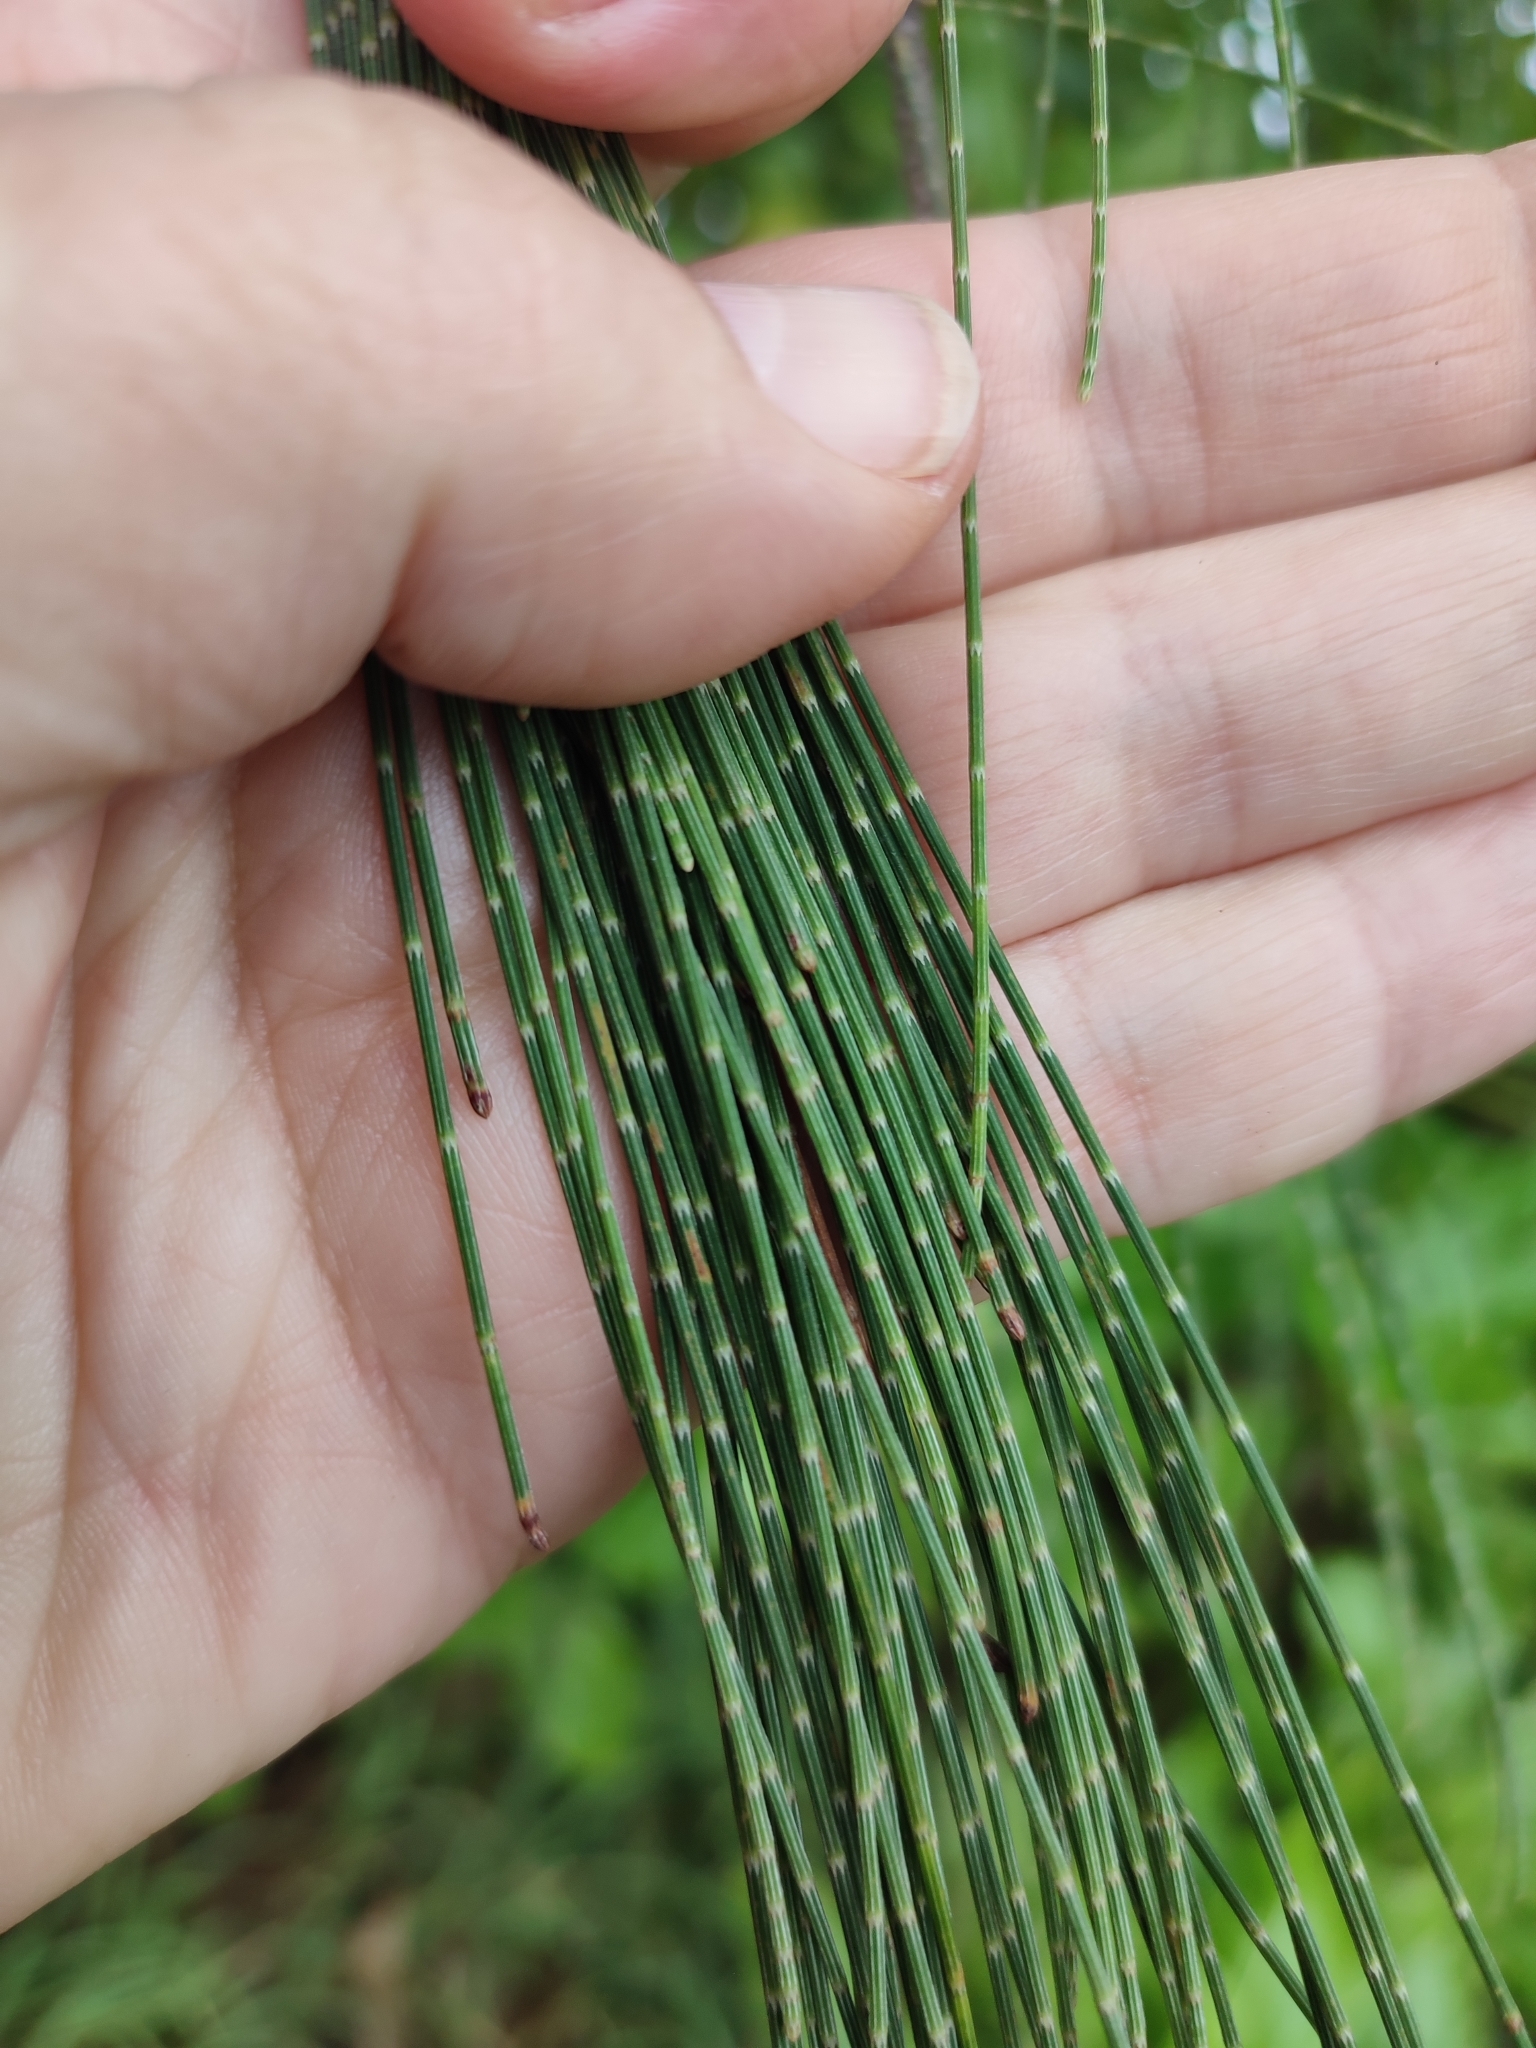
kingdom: Plantae
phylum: Tracheophyta
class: Magnoliopsida
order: Fagales
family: Casuarinaceae
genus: Casuarina
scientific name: Casuarina equisetifolia
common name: Beach sheoak
